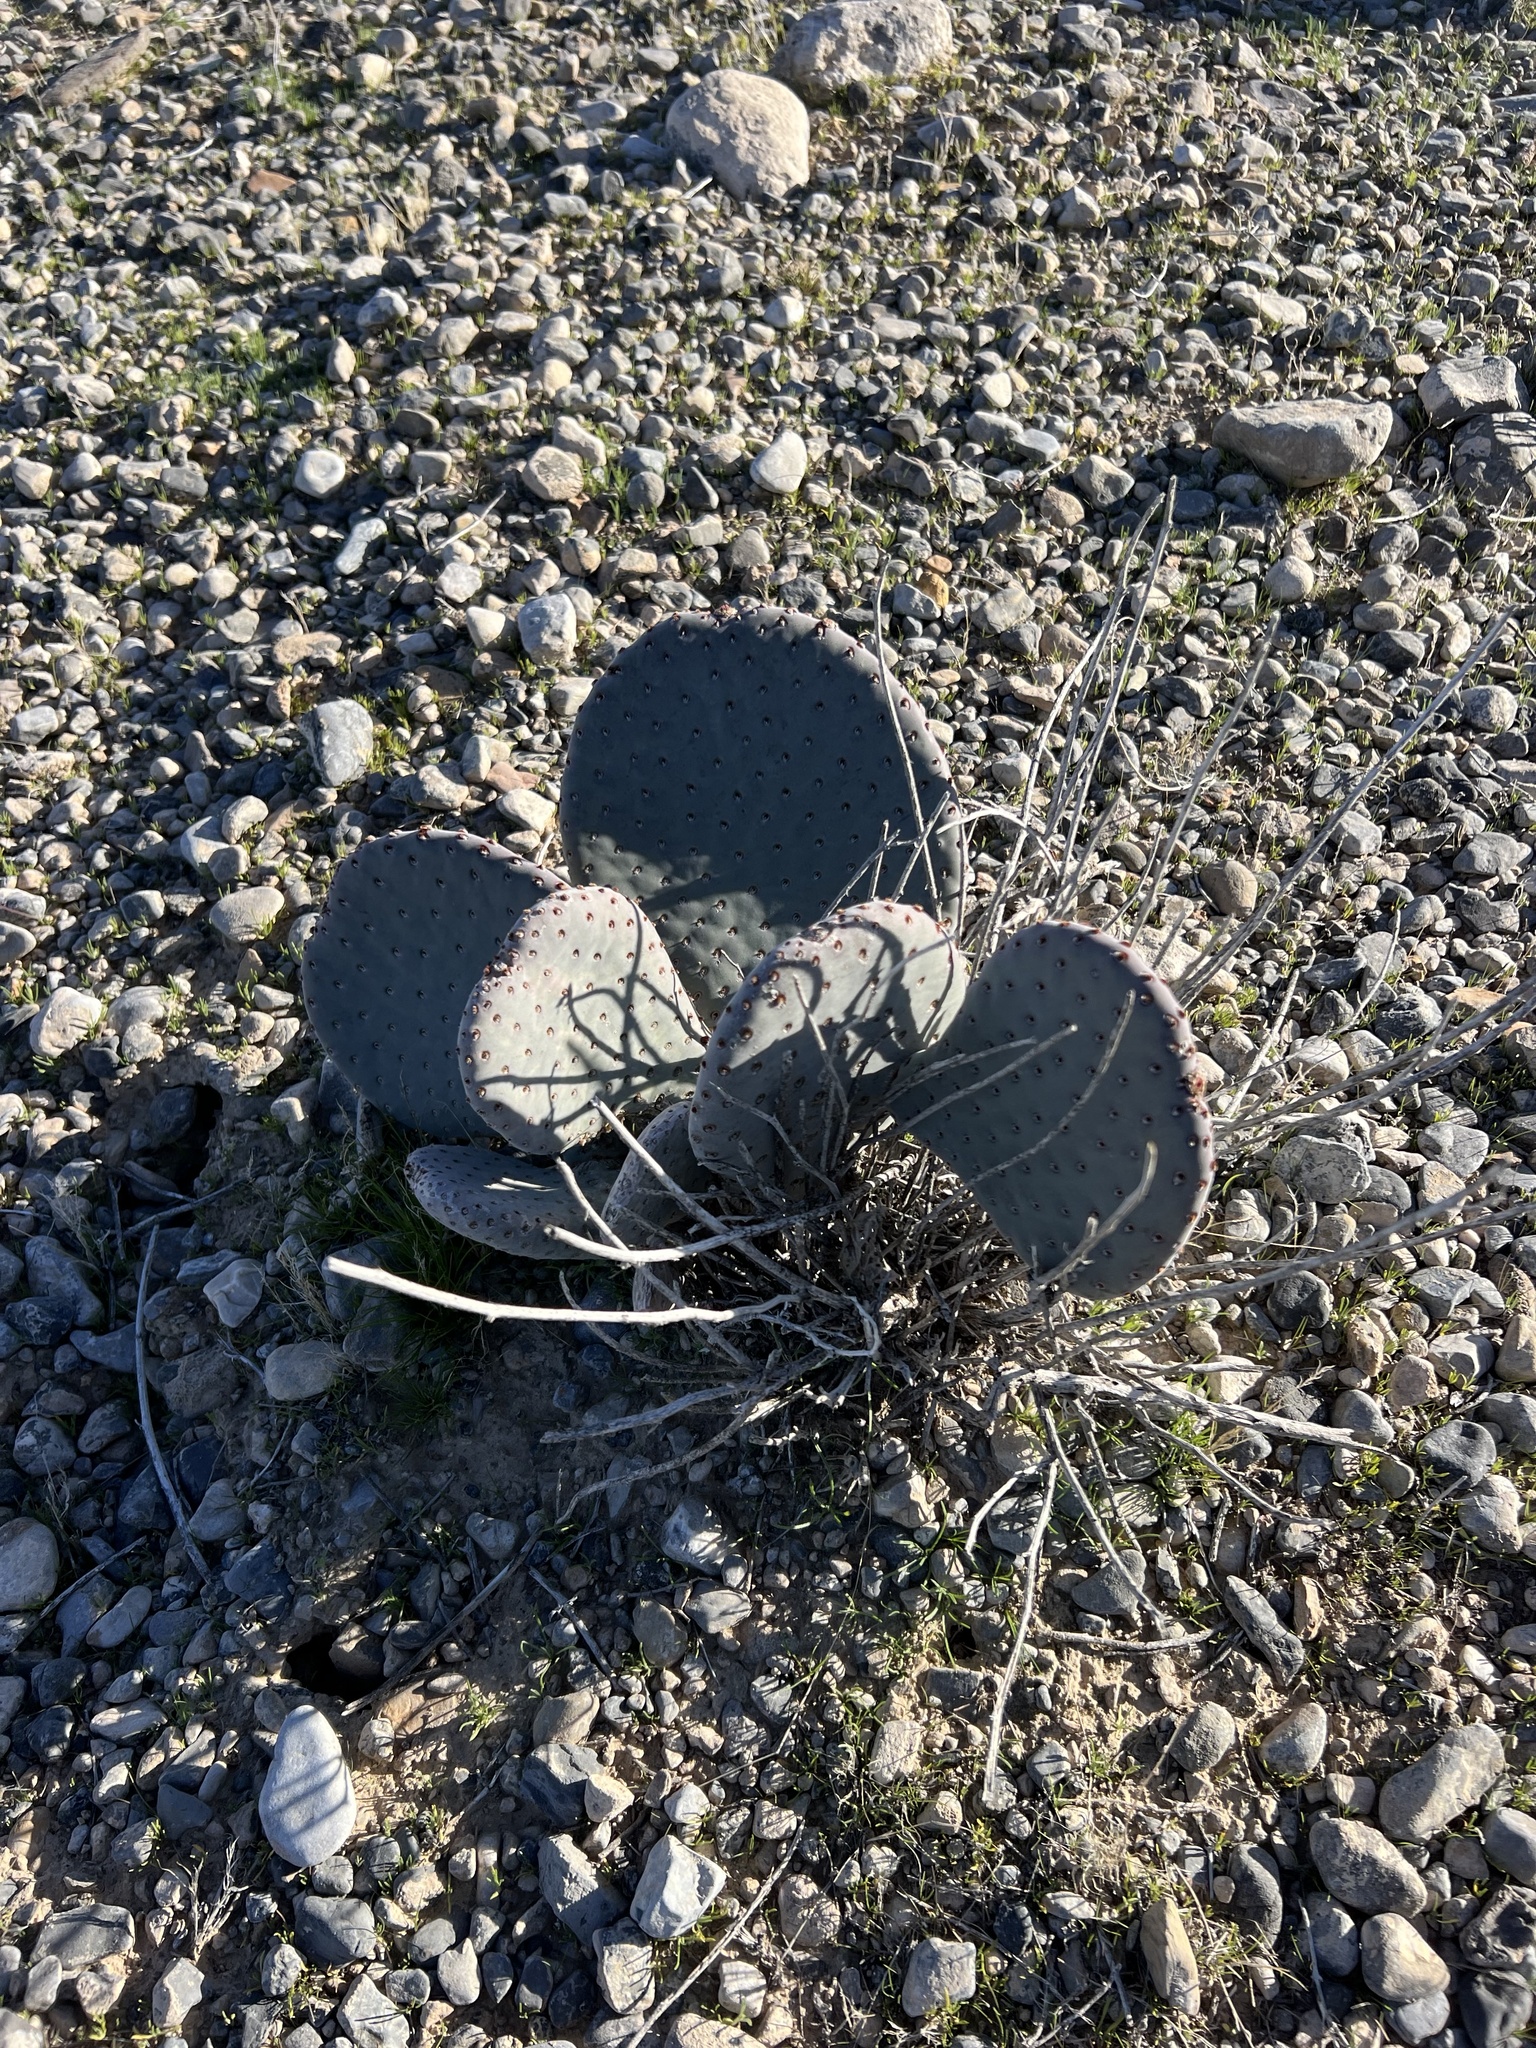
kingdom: Plantae
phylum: Tracheophyta
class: Magnoliopsida
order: Caryophyllales
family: Cactaceae
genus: Opuntia
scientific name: Opuntia basilaris
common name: Beavertail prickly-pear
